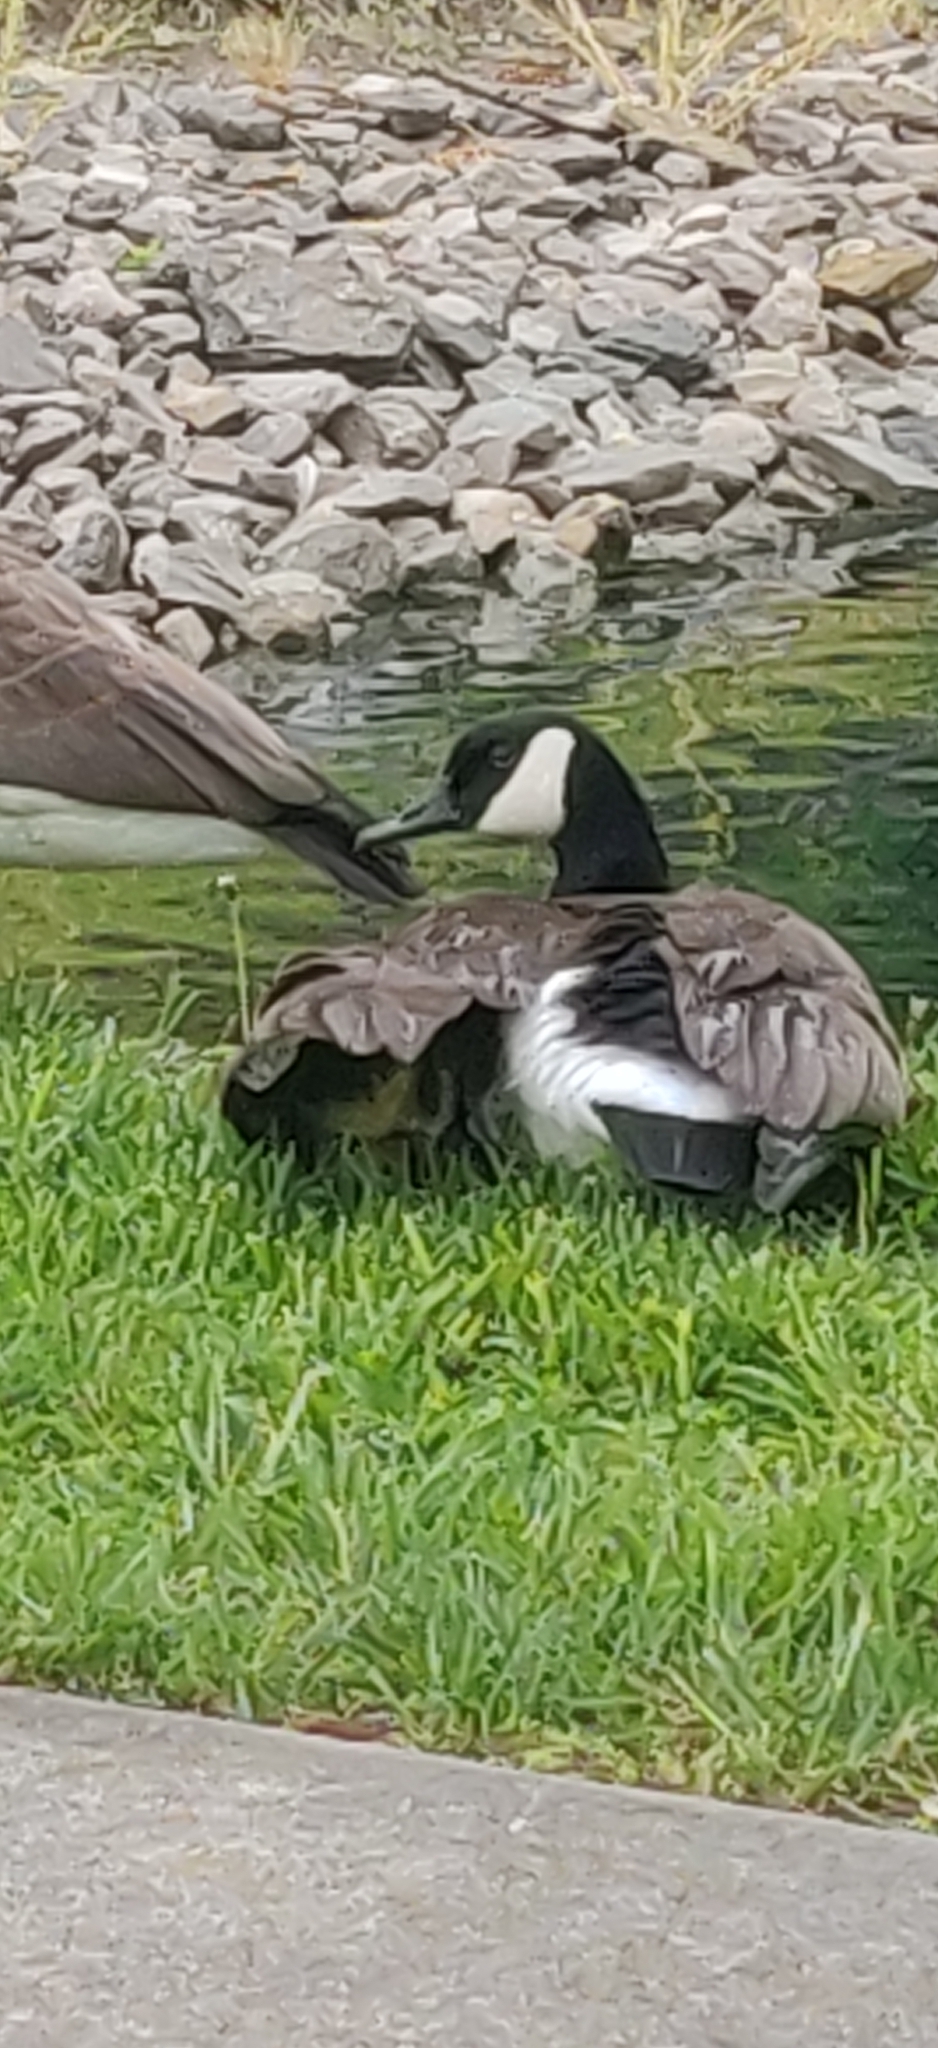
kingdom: Animalia
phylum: Chordata
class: Aves
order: Anseriformes
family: Anatidae
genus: Branta
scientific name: Branta canadensis
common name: Canada goose
